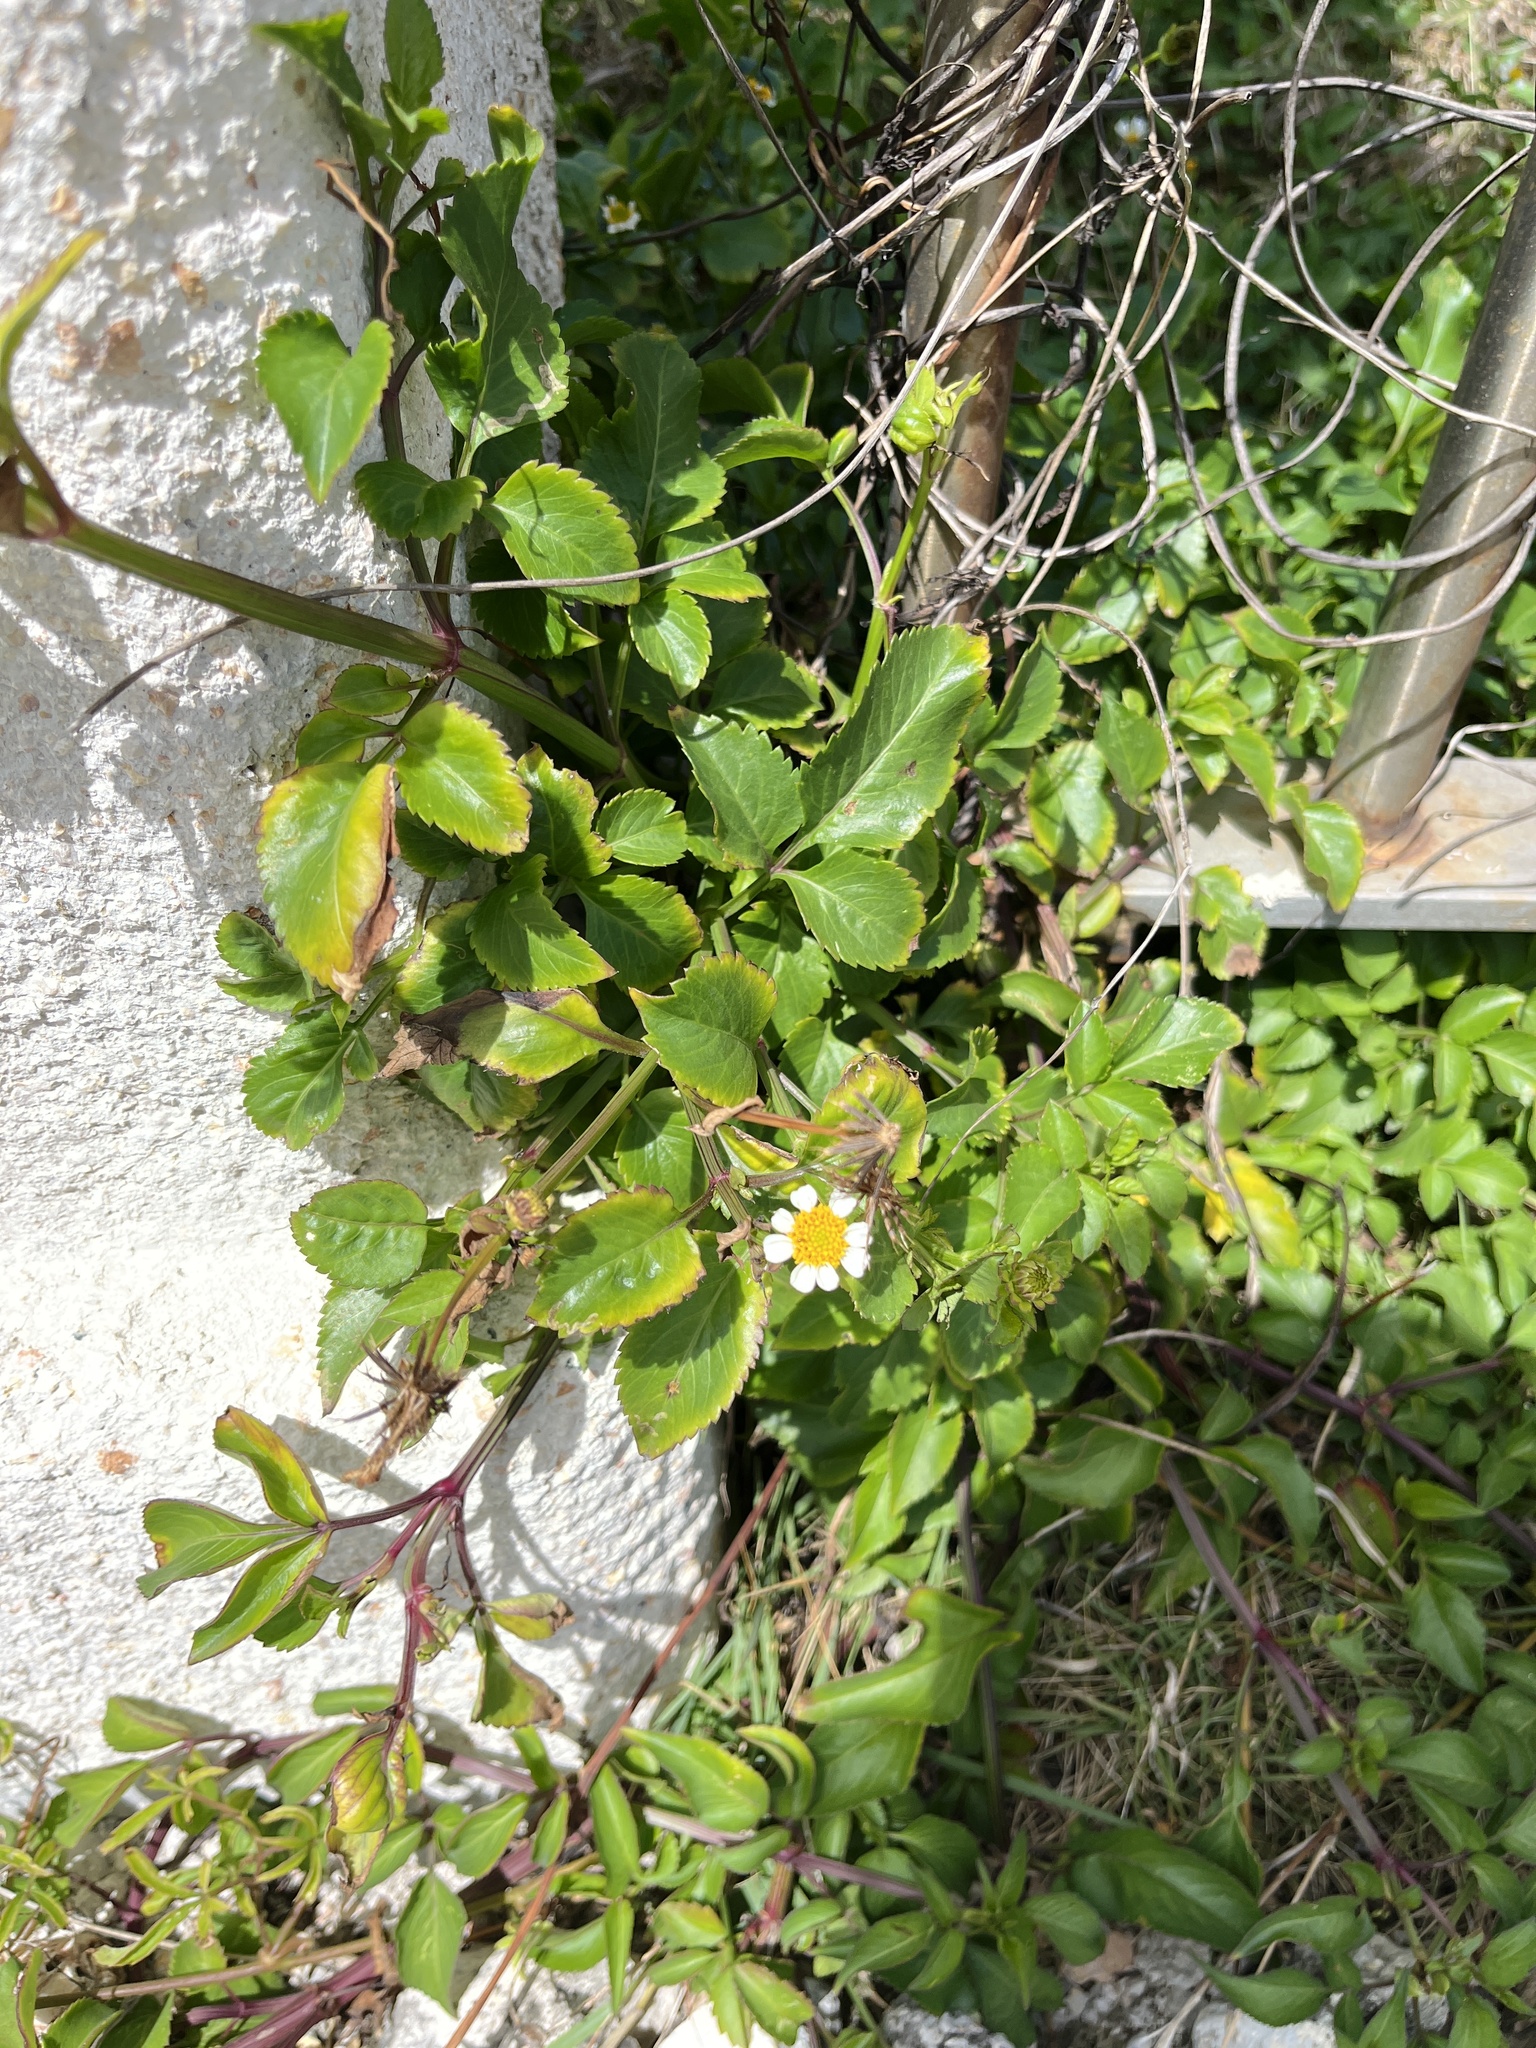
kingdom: Plantae
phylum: Tracheophyta
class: Magnoliopsida
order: Asterales
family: Asteraceae
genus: Bidens
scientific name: Bidens alba
